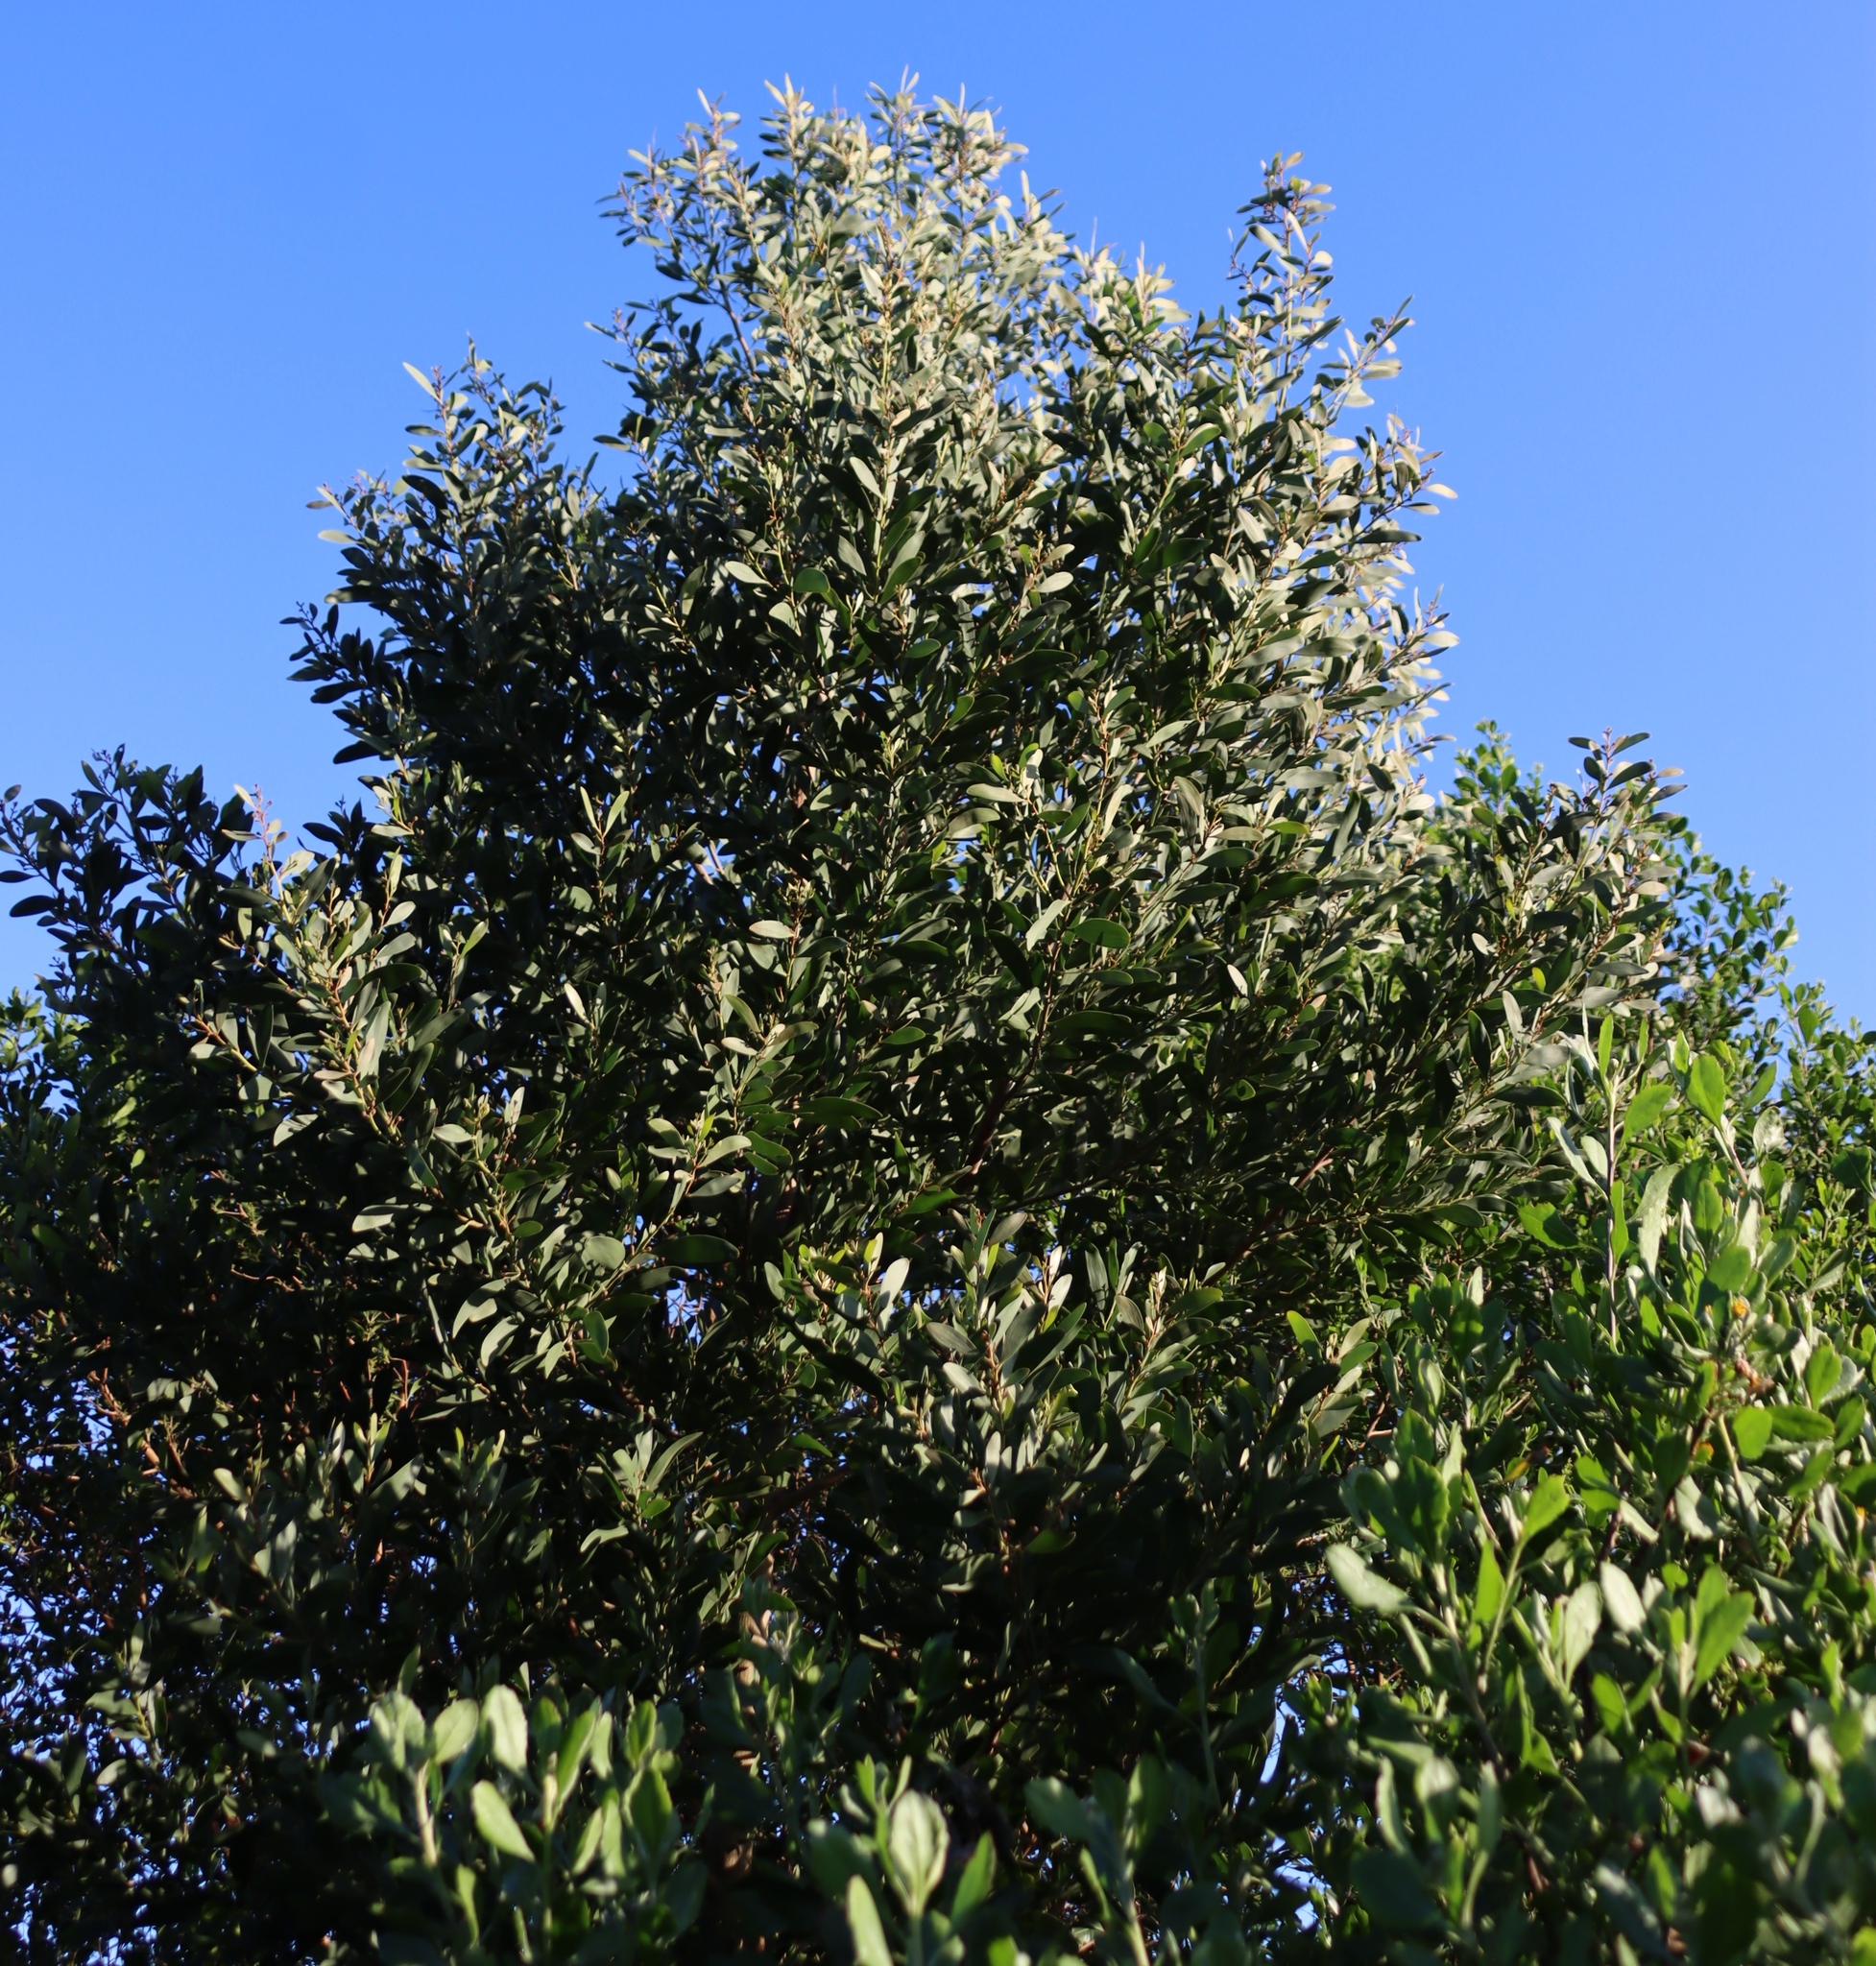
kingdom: Plantae
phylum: Tracheophyta
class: Magnoliopsida
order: Fabales
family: Fabaceae
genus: Acacia
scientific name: Acacia melanoxylon
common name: Blackwood
